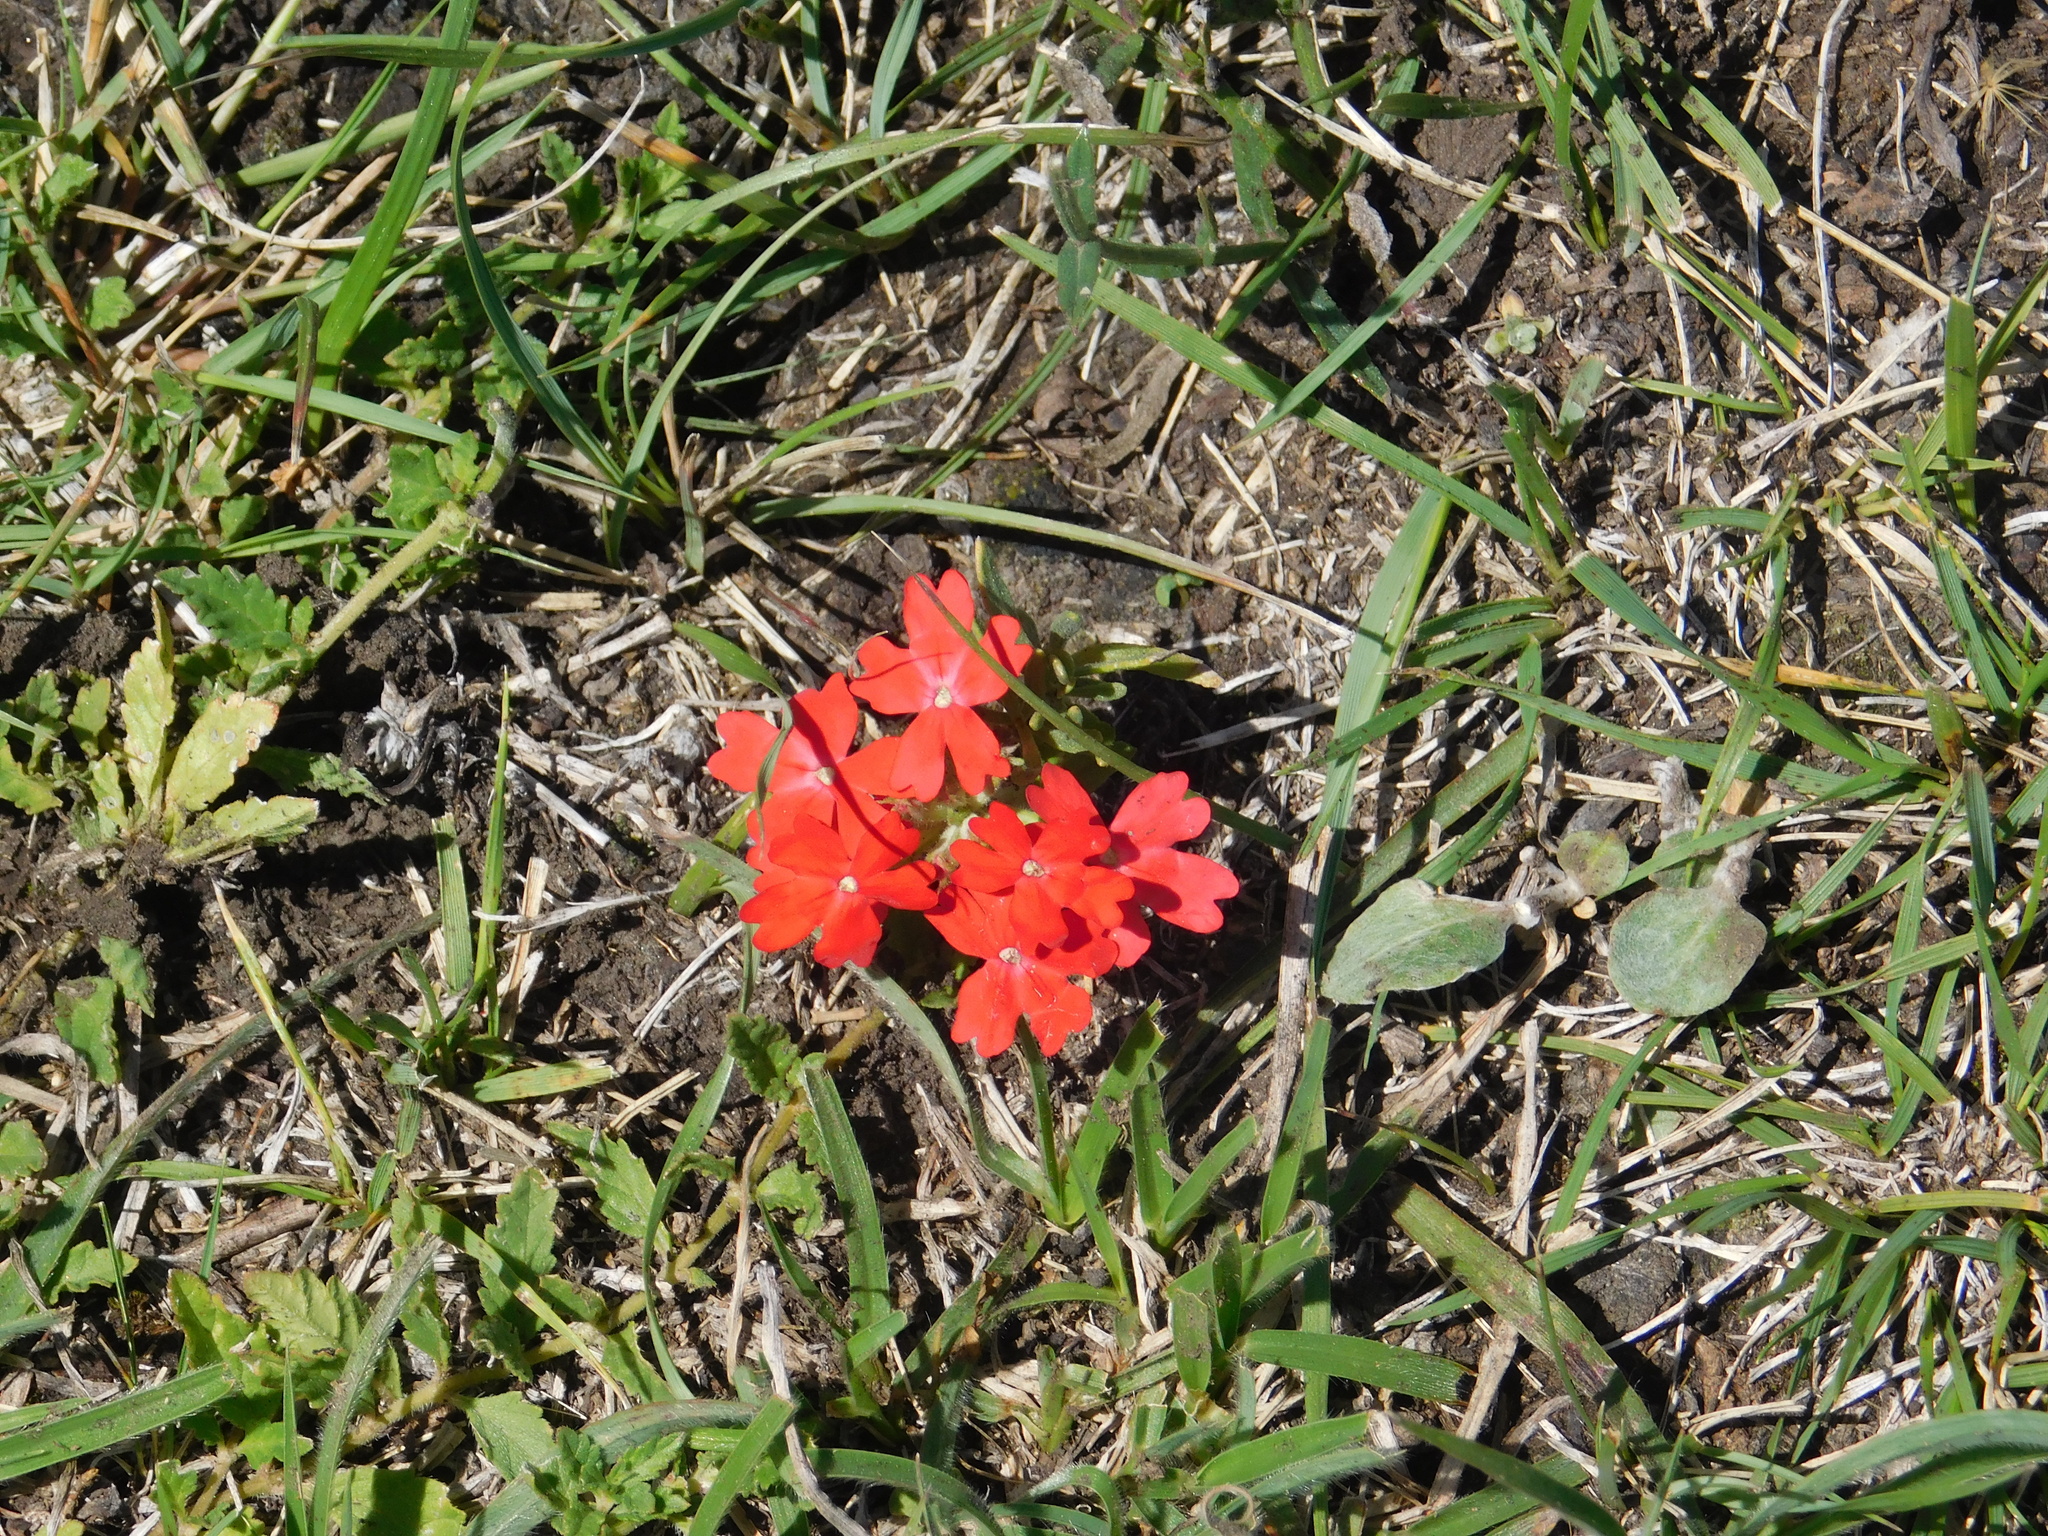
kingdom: Plantae
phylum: Tracheophyta
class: Magnoliopsida
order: Lamiales
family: Verbenaceae
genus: Verbena
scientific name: Verbena peruviana
